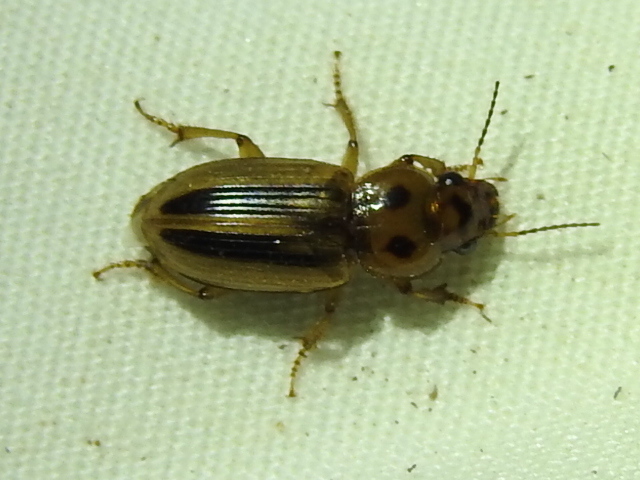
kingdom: Animalia
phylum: Arthropoda
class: Insecta
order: Coleoptera
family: Carabidae
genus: Stenolophus
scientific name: Stenolophus lineola
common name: Lined stenolophus
